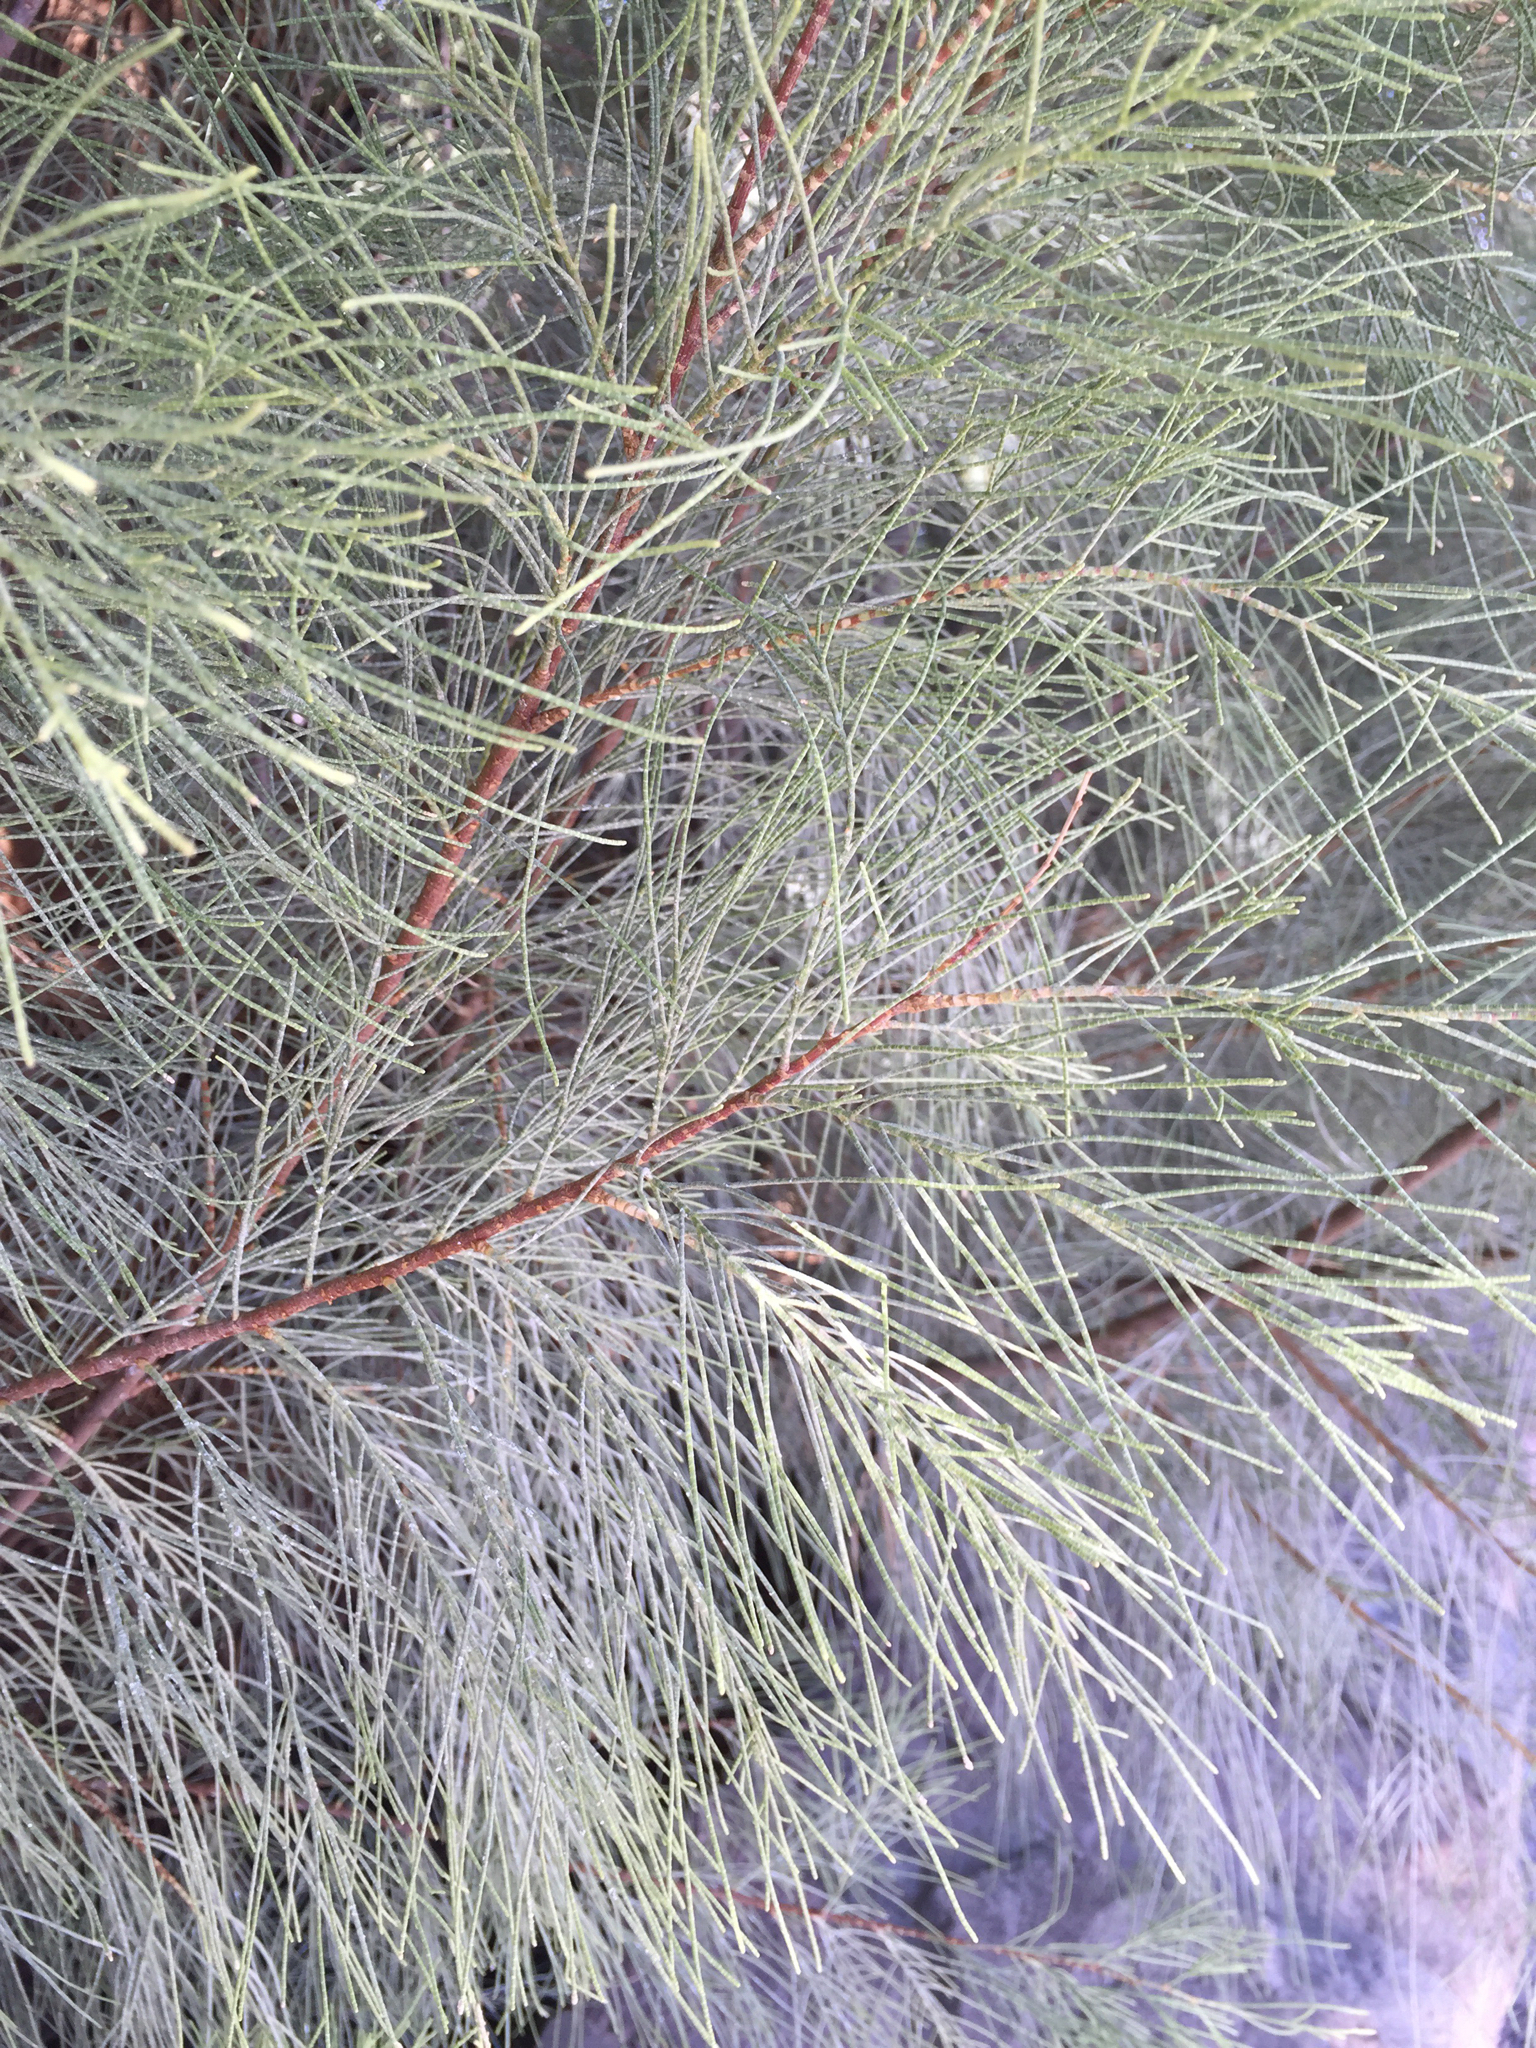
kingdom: Plantae
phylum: Tracheophyta
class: Magnoliopsida
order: Caryophyllales
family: Tamaricaceae
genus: Tamarix
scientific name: Tamarix aphylla
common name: Athel tamarisk
